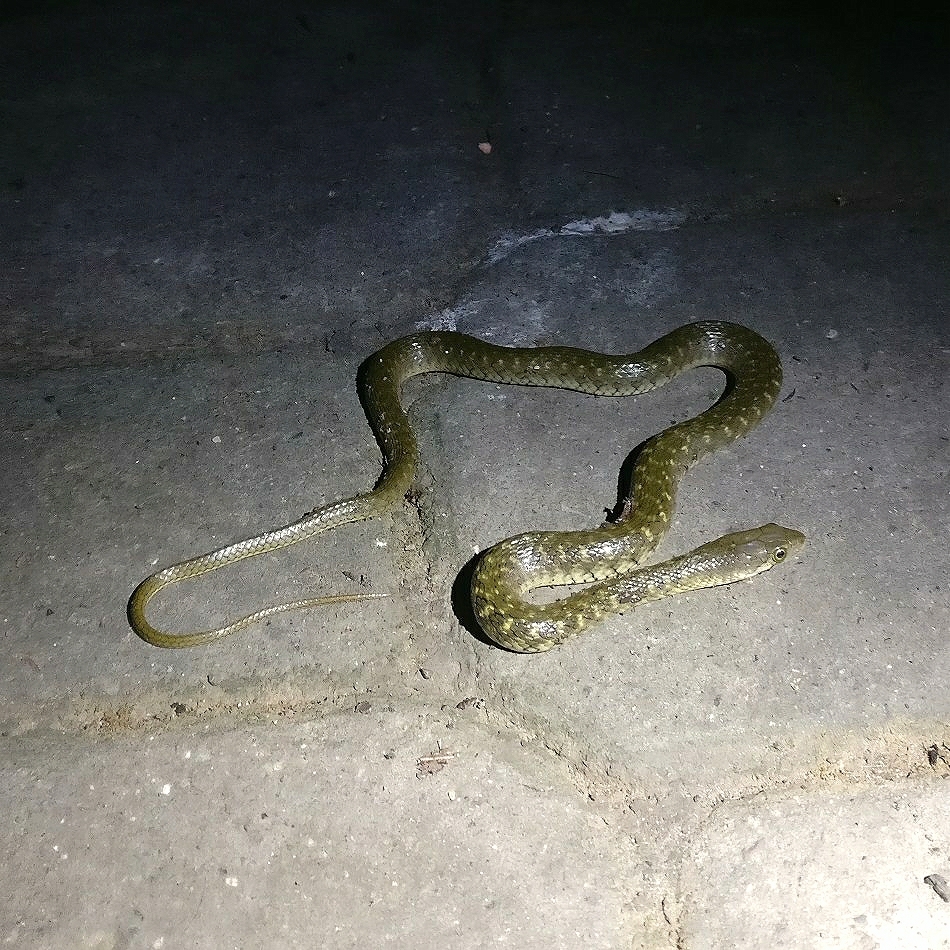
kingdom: Animalia
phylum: Chordata
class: Squamata
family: Colubridae
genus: Fowlea
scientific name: Fowlea piscator
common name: Asiatic water snake
